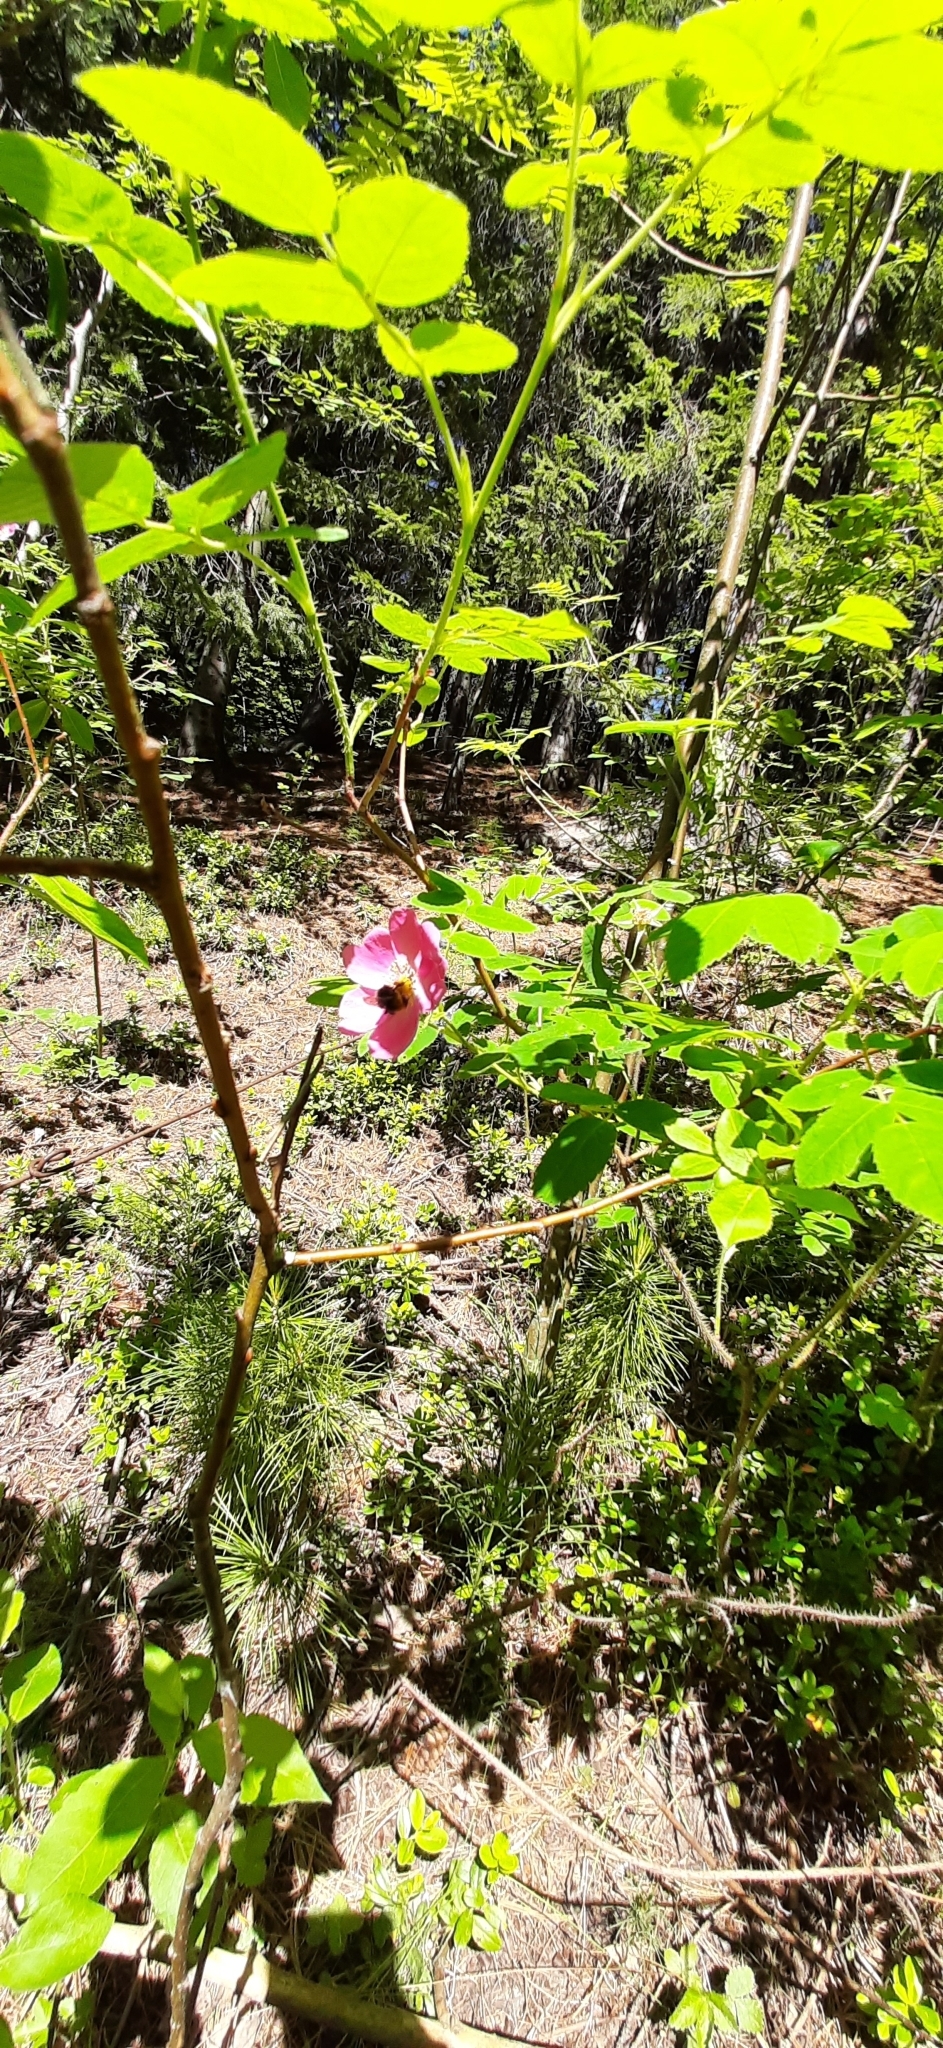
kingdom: Plantae
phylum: Tracheophyta
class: Magnoliopsida
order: Rosales
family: Rosaceae
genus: Rosa
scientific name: Rosa majalis
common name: Cinnamon rose
